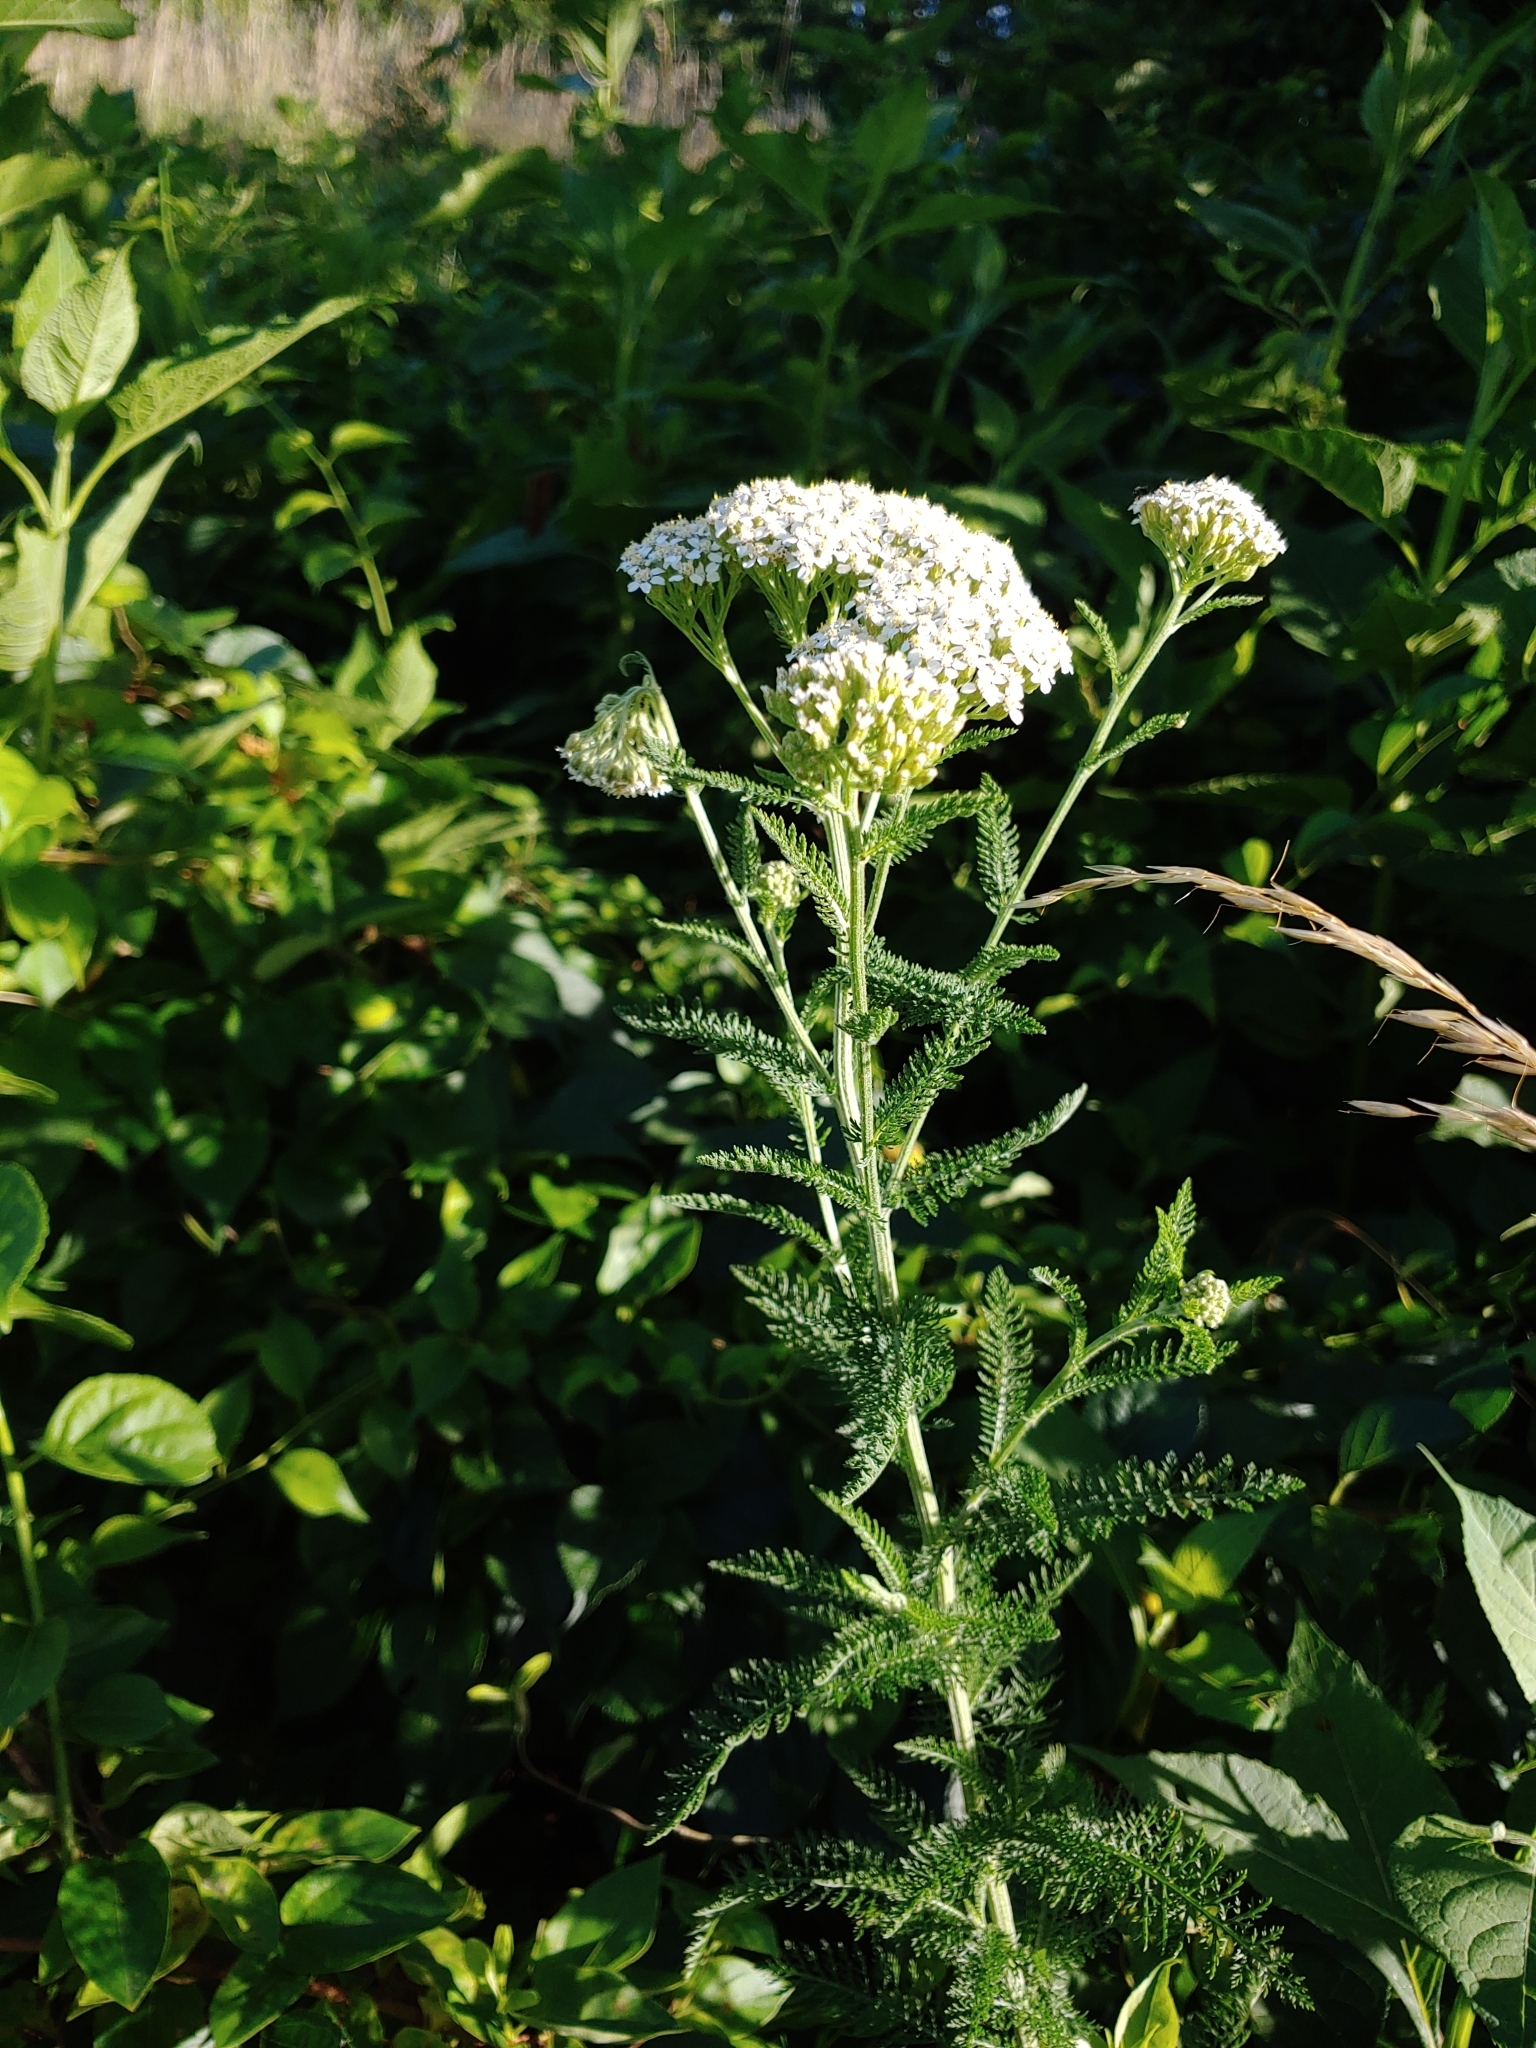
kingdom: Plantae
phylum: Tracheophyta
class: Magnoliopsida
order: Asterales
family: Asteraceae
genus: Achillea
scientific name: Achillea millefolium
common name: Yarrow
